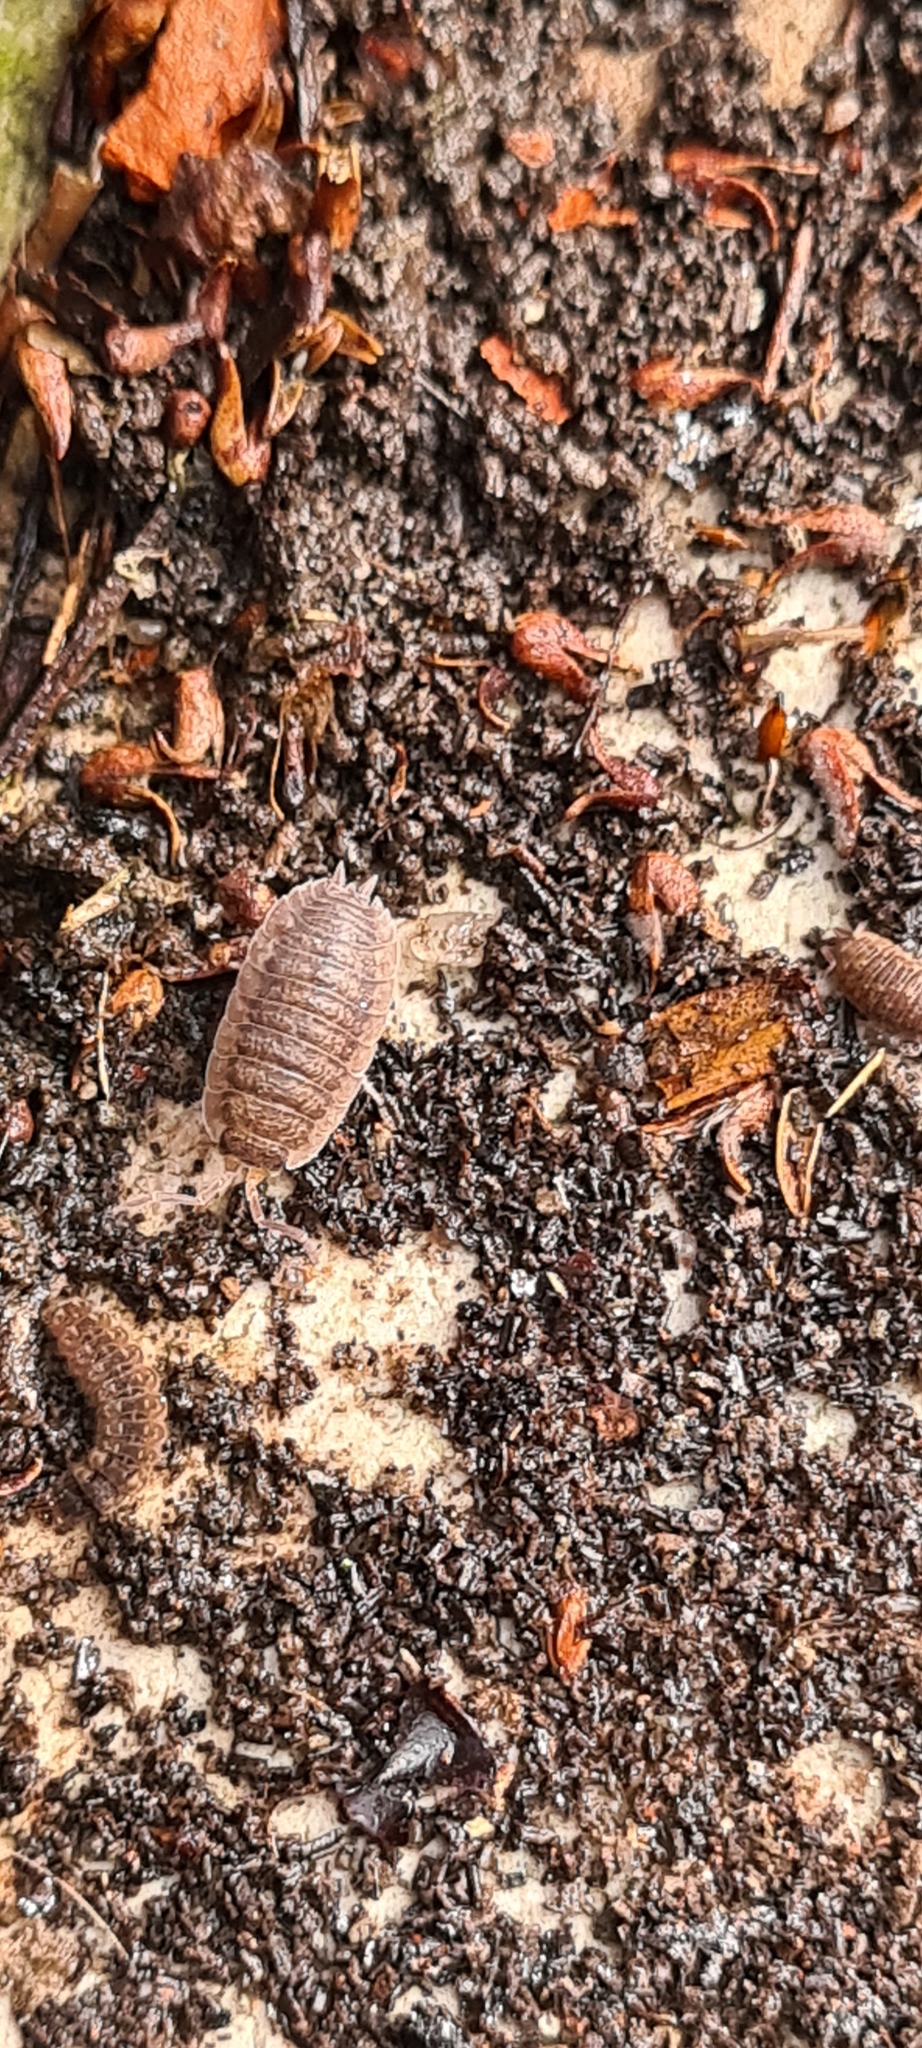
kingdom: Animalia
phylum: Arthropoda
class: Malacostraca
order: Isopoda
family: Porcellionidae
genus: Porcellio
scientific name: Porcellio scaber
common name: Common rough woodlouse
